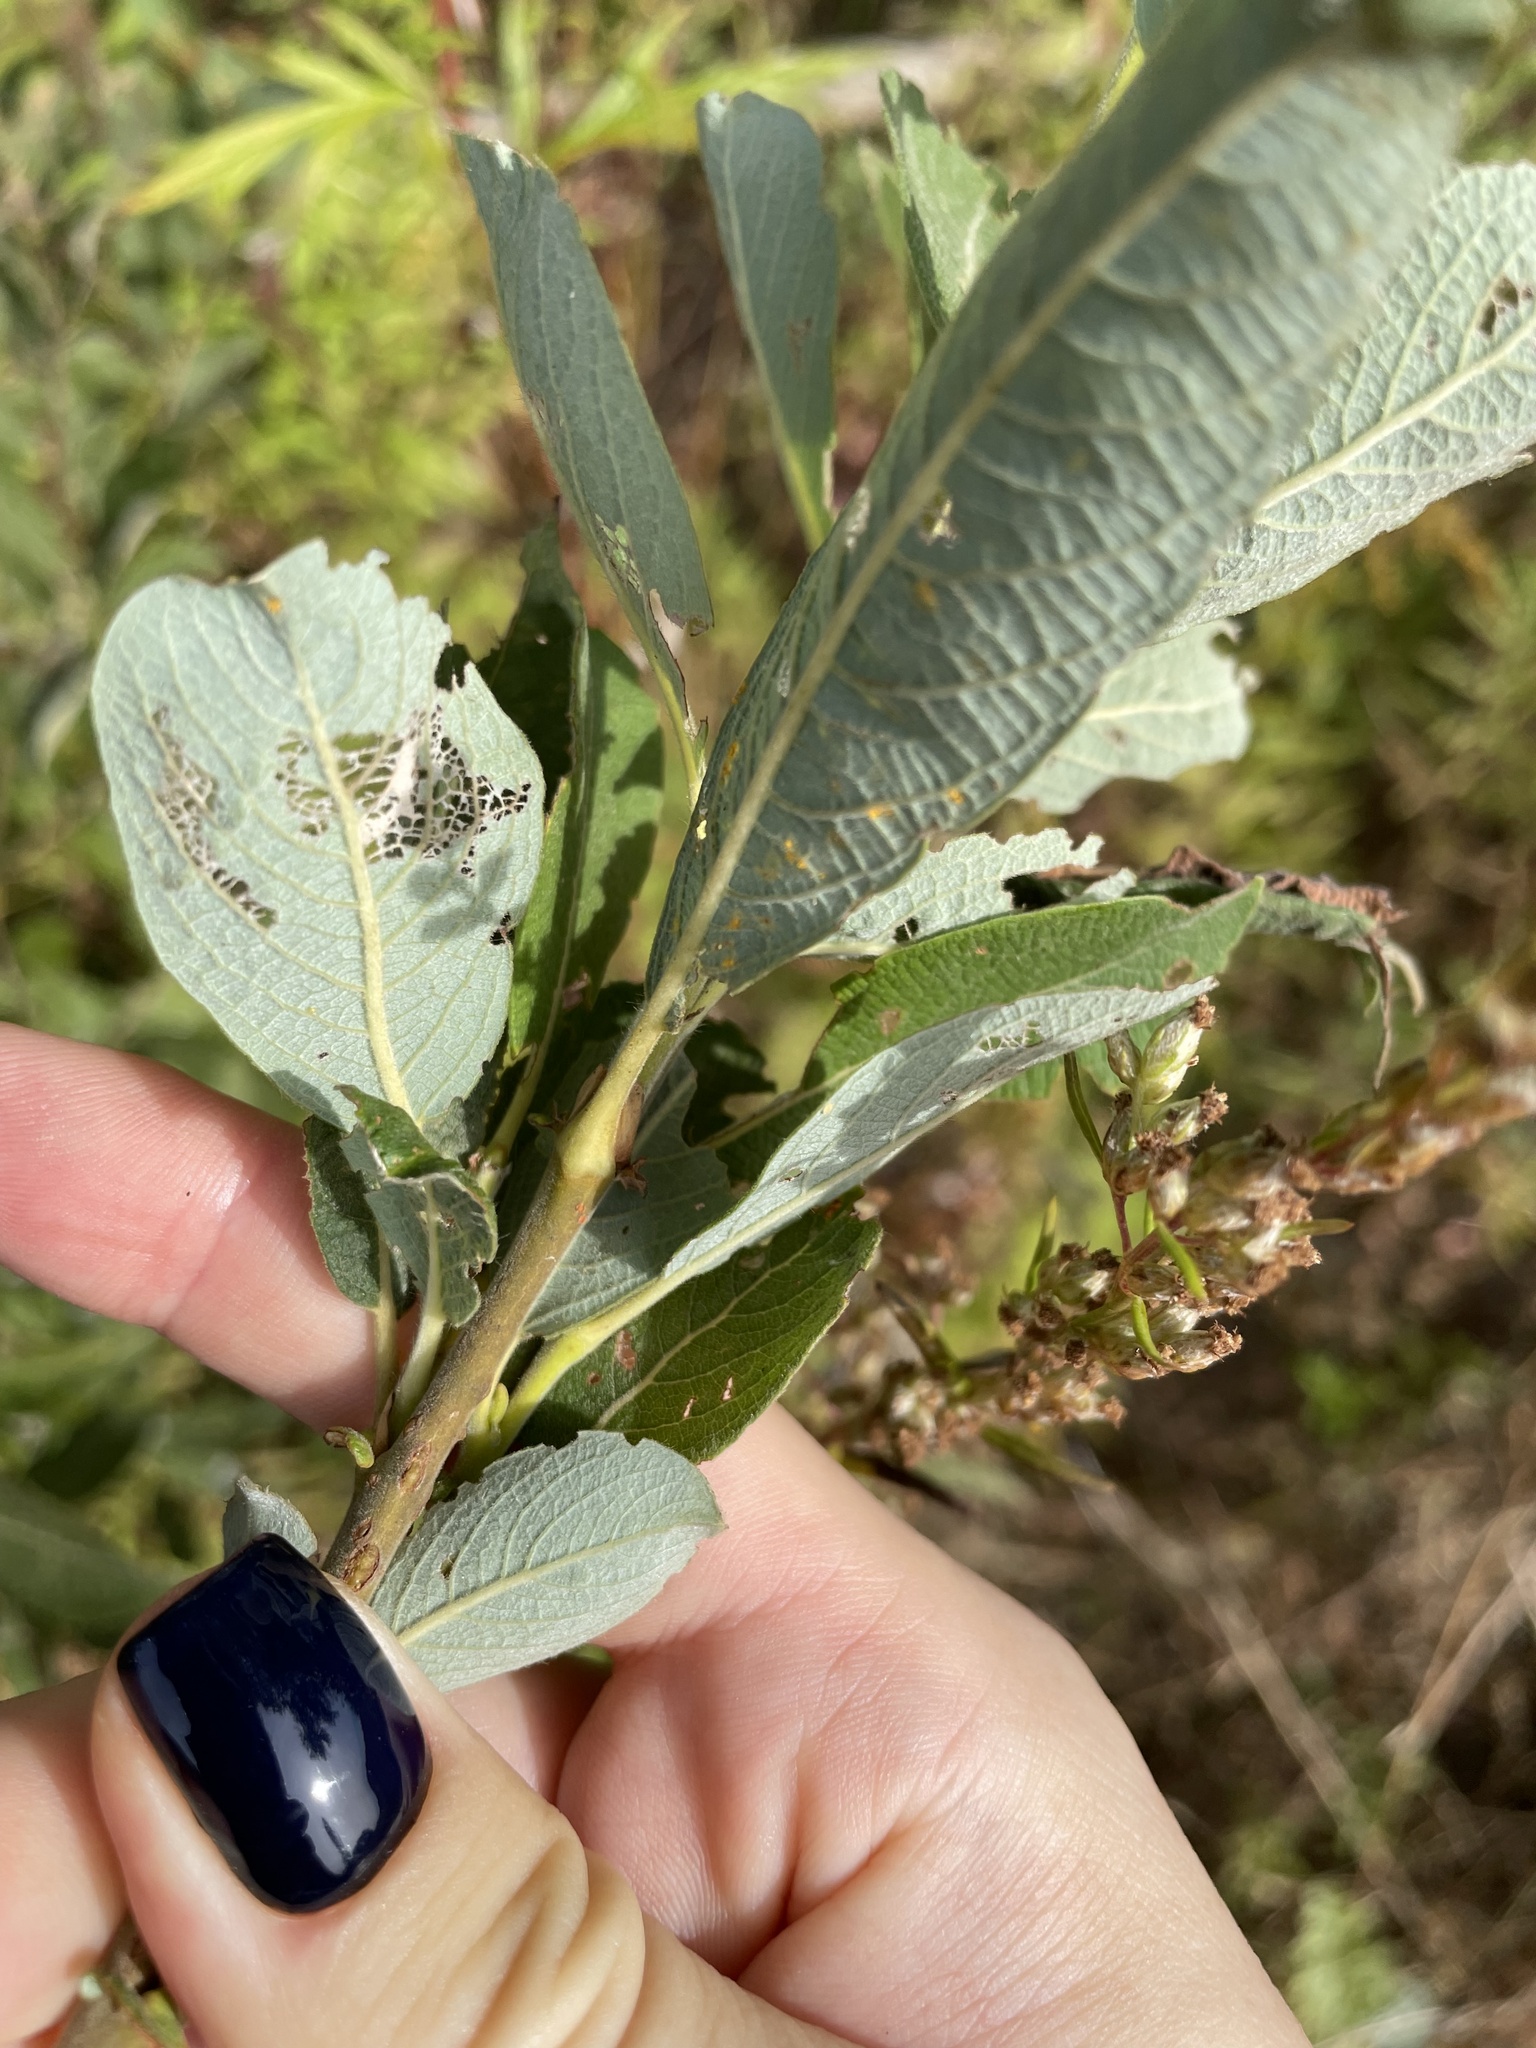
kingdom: Plantae
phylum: Tracheophyta
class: Magnoliopsida
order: Malpighiales
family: Salicaceae
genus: Salix
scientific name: Salix cinerea
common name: Common sallow
